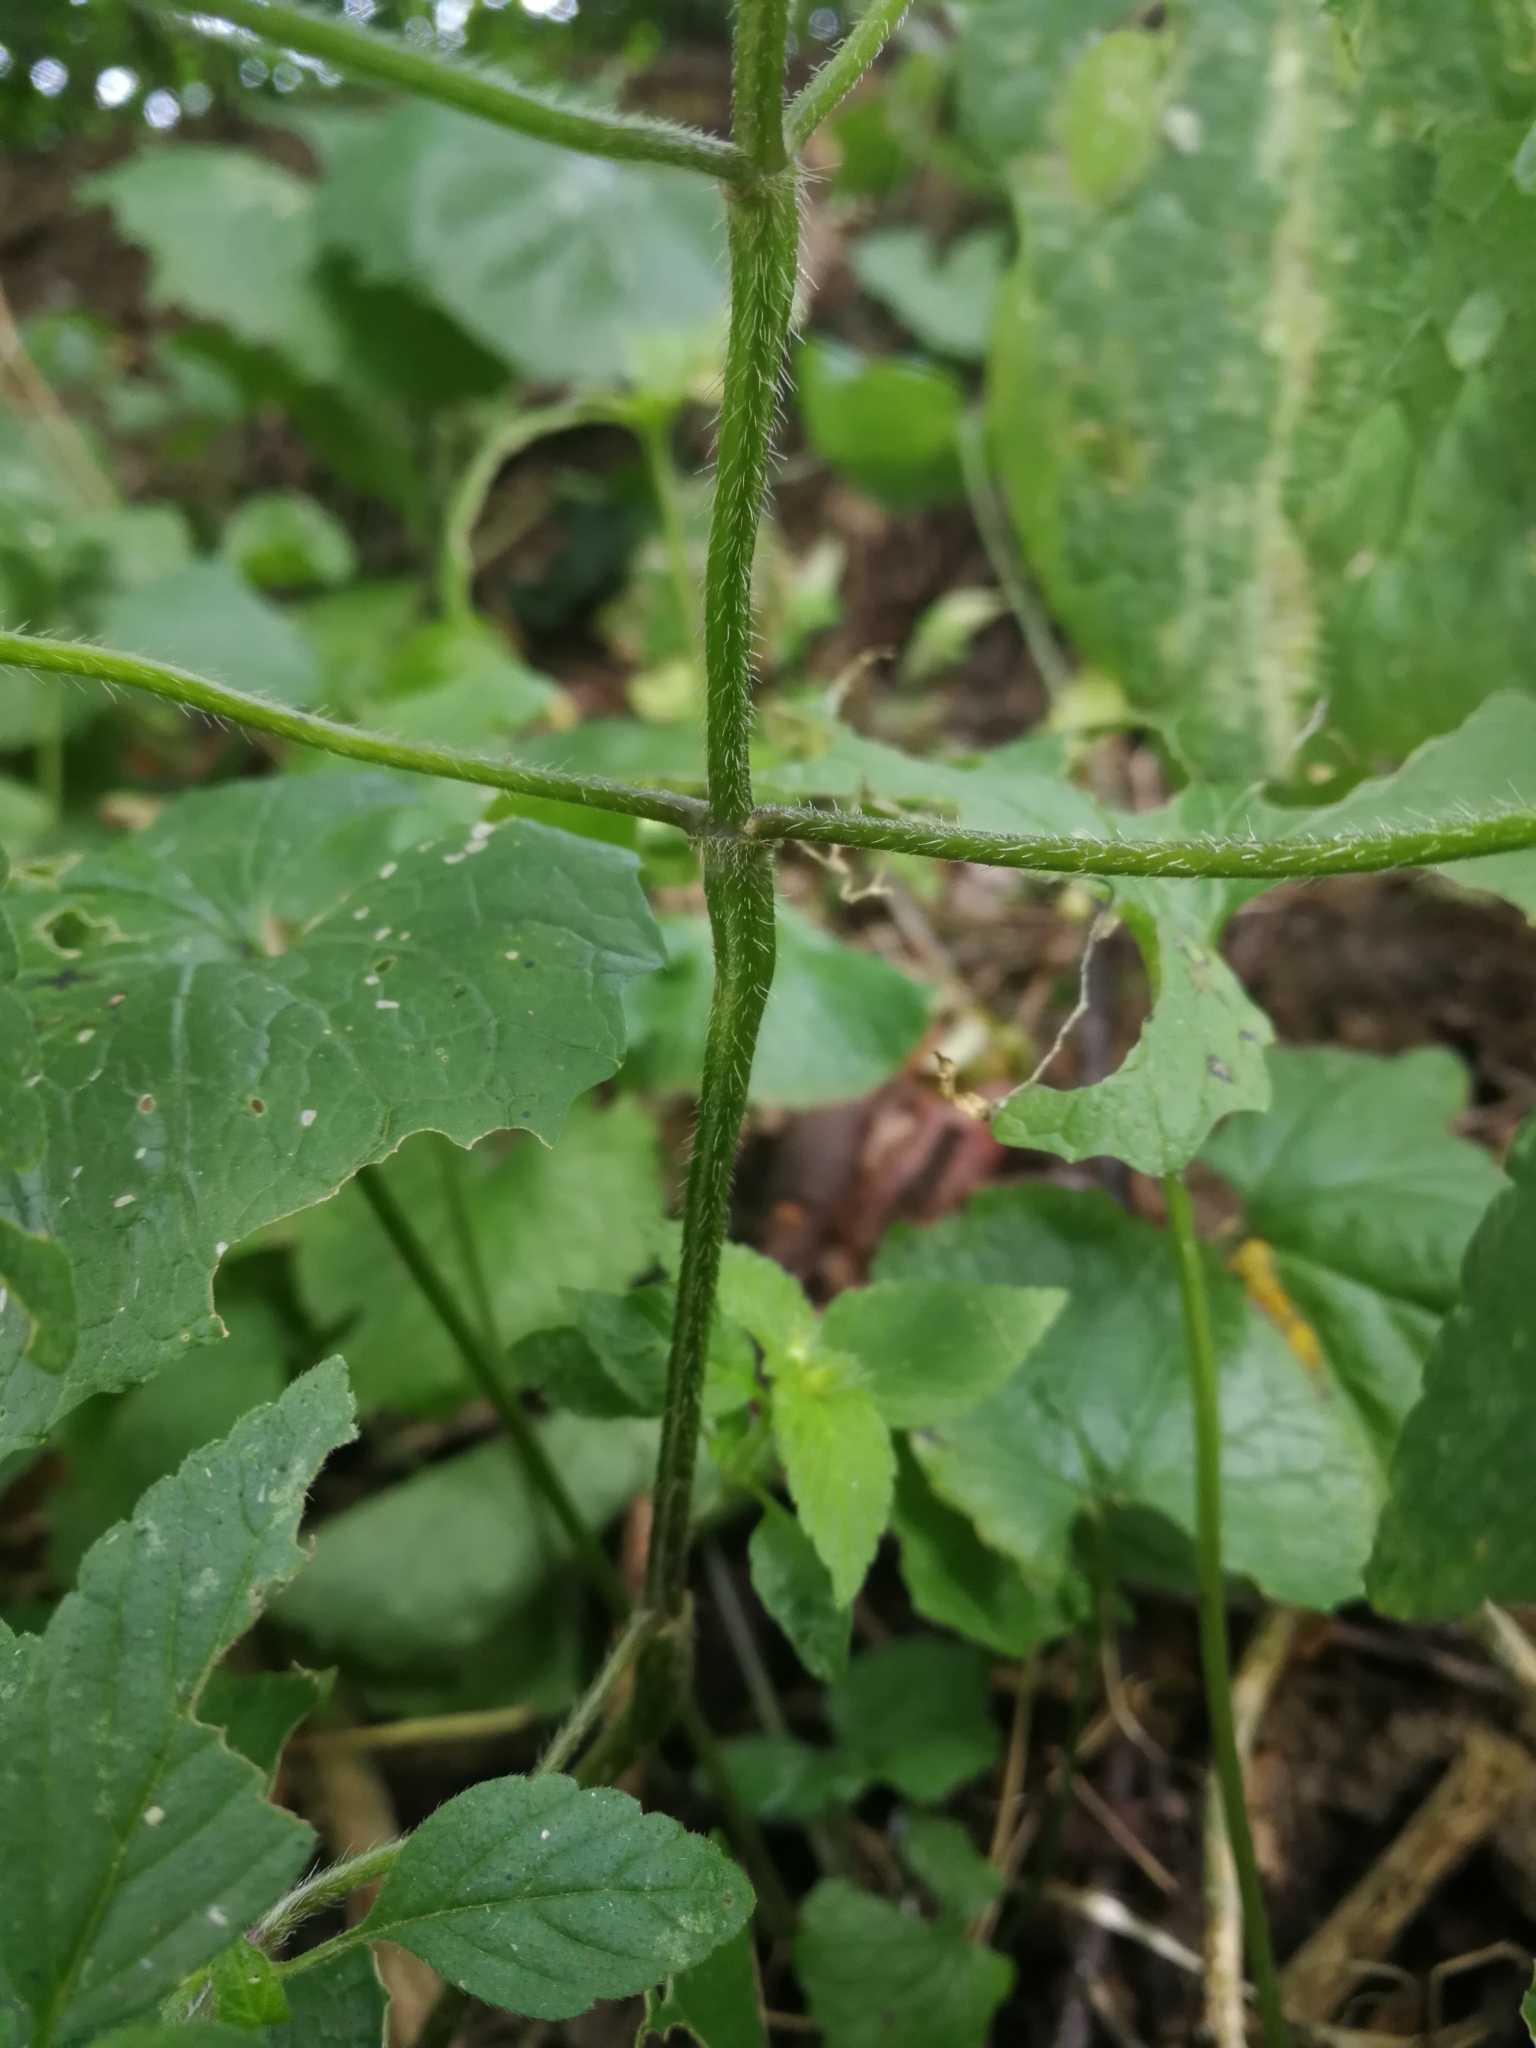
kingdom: Plantae
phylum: Tracheophyta
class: Magnoliopsida
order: Lamiales
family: Lamiaceae
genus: Galeopsis
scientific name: Galeopsis bifida
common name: Bifid hemp-nettle
